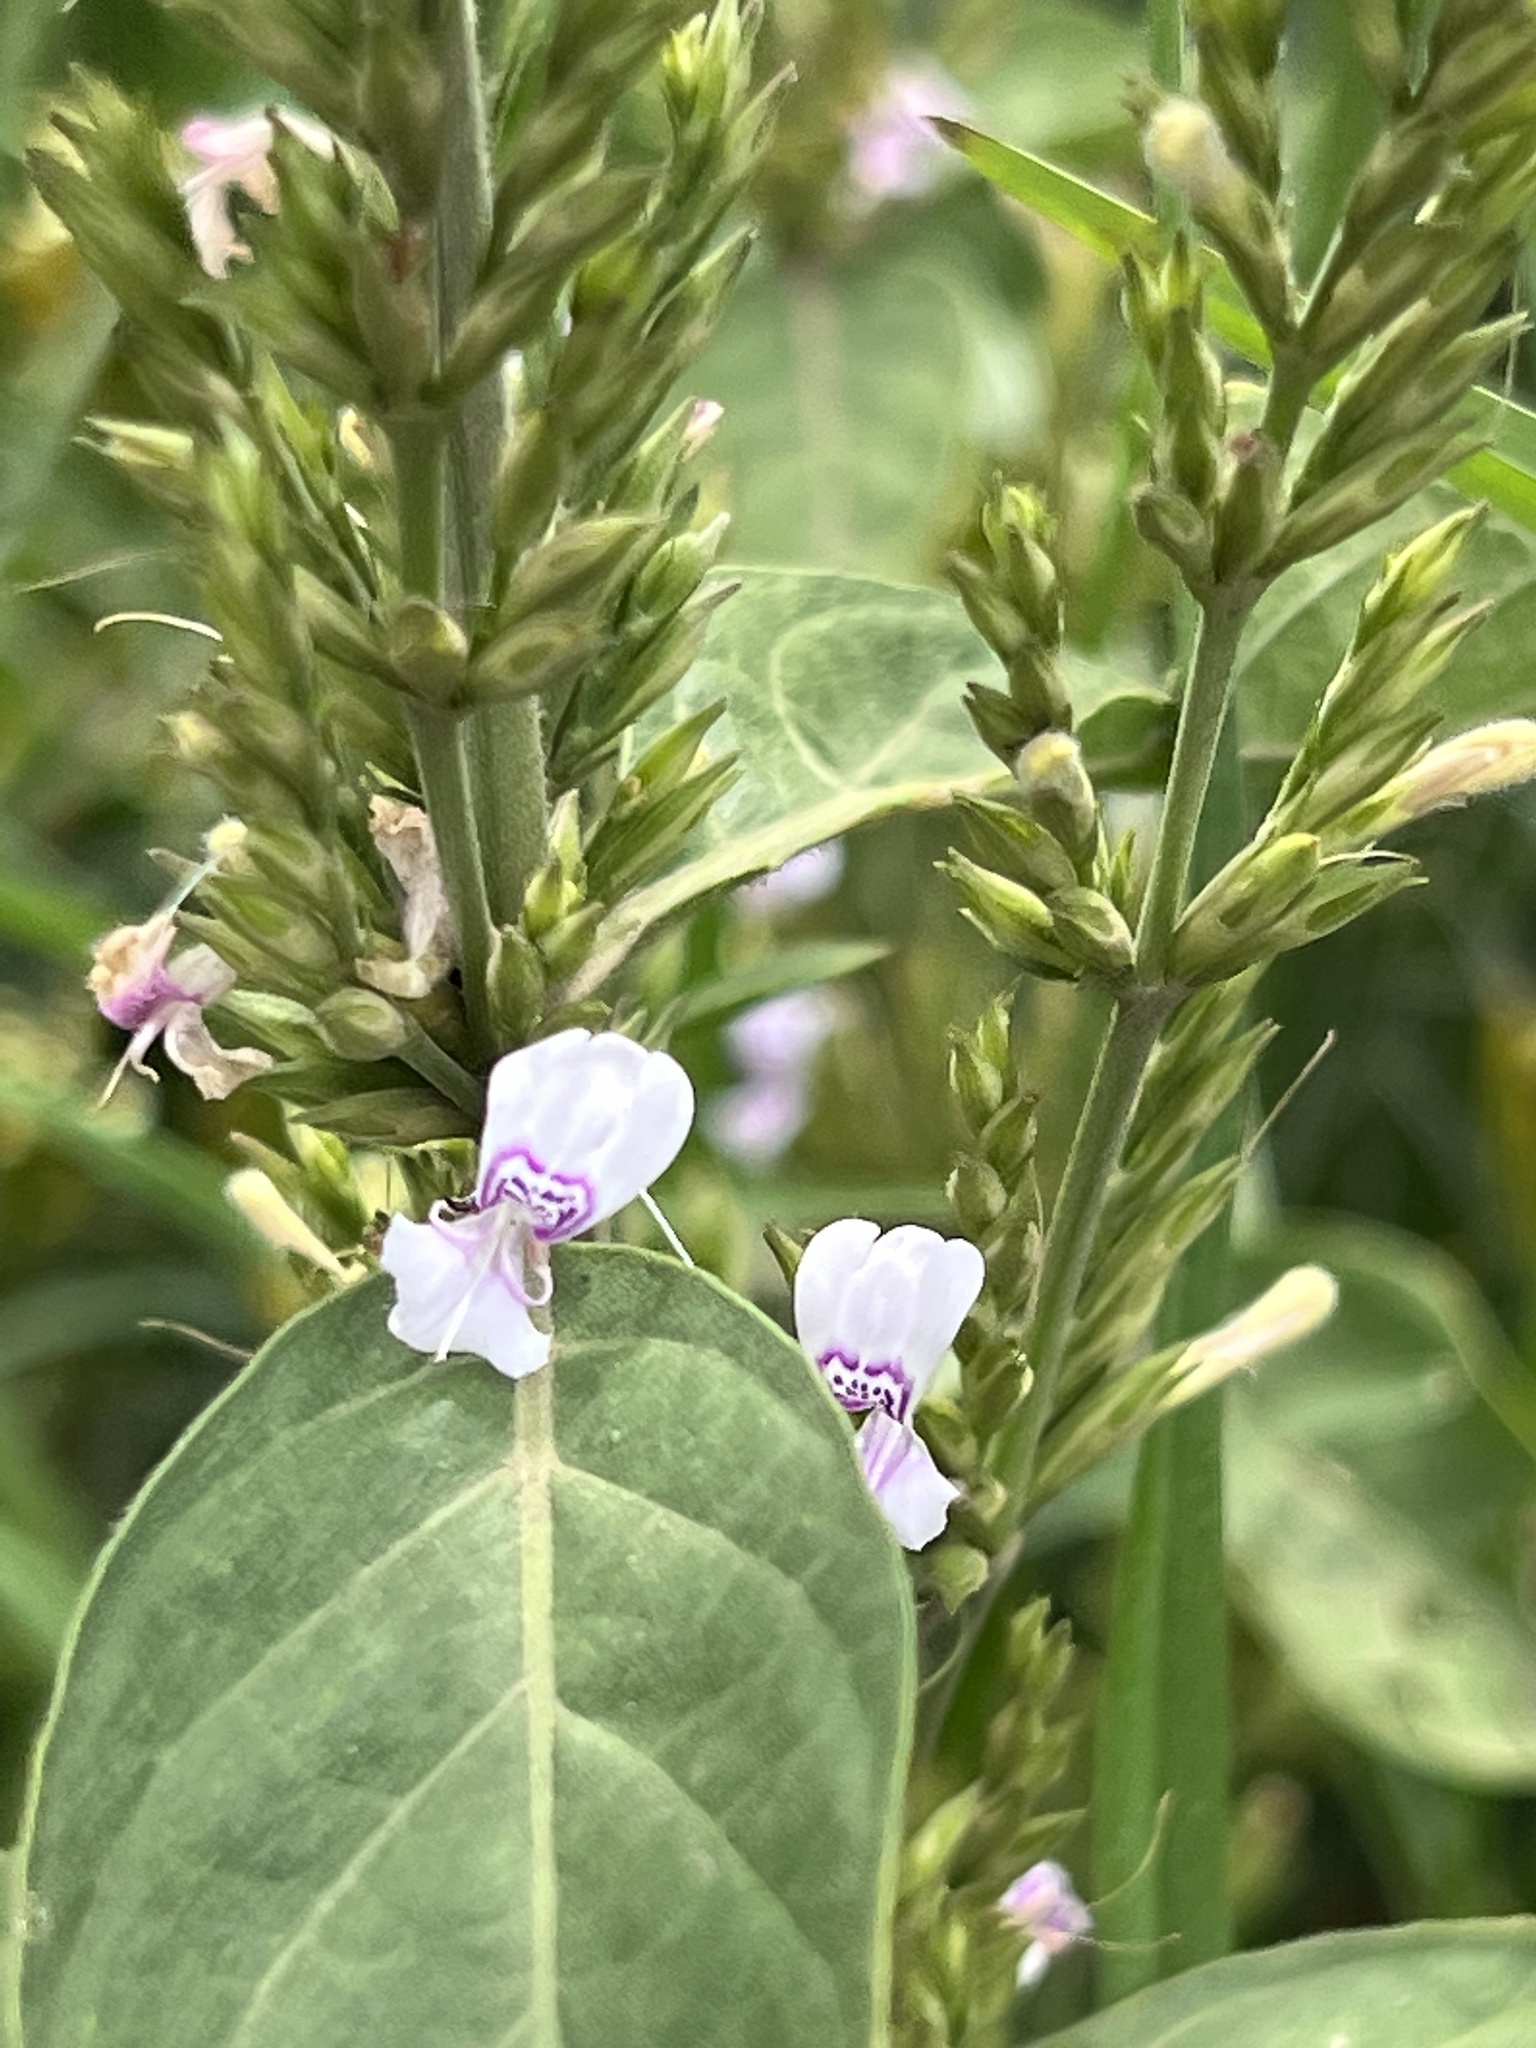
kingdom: Plantae
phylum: Tracheophyta
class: Magnoliopsida
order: Lamiales
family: Acanthaceae
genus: Hypoestes
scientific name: Hypoestes forskaolii
